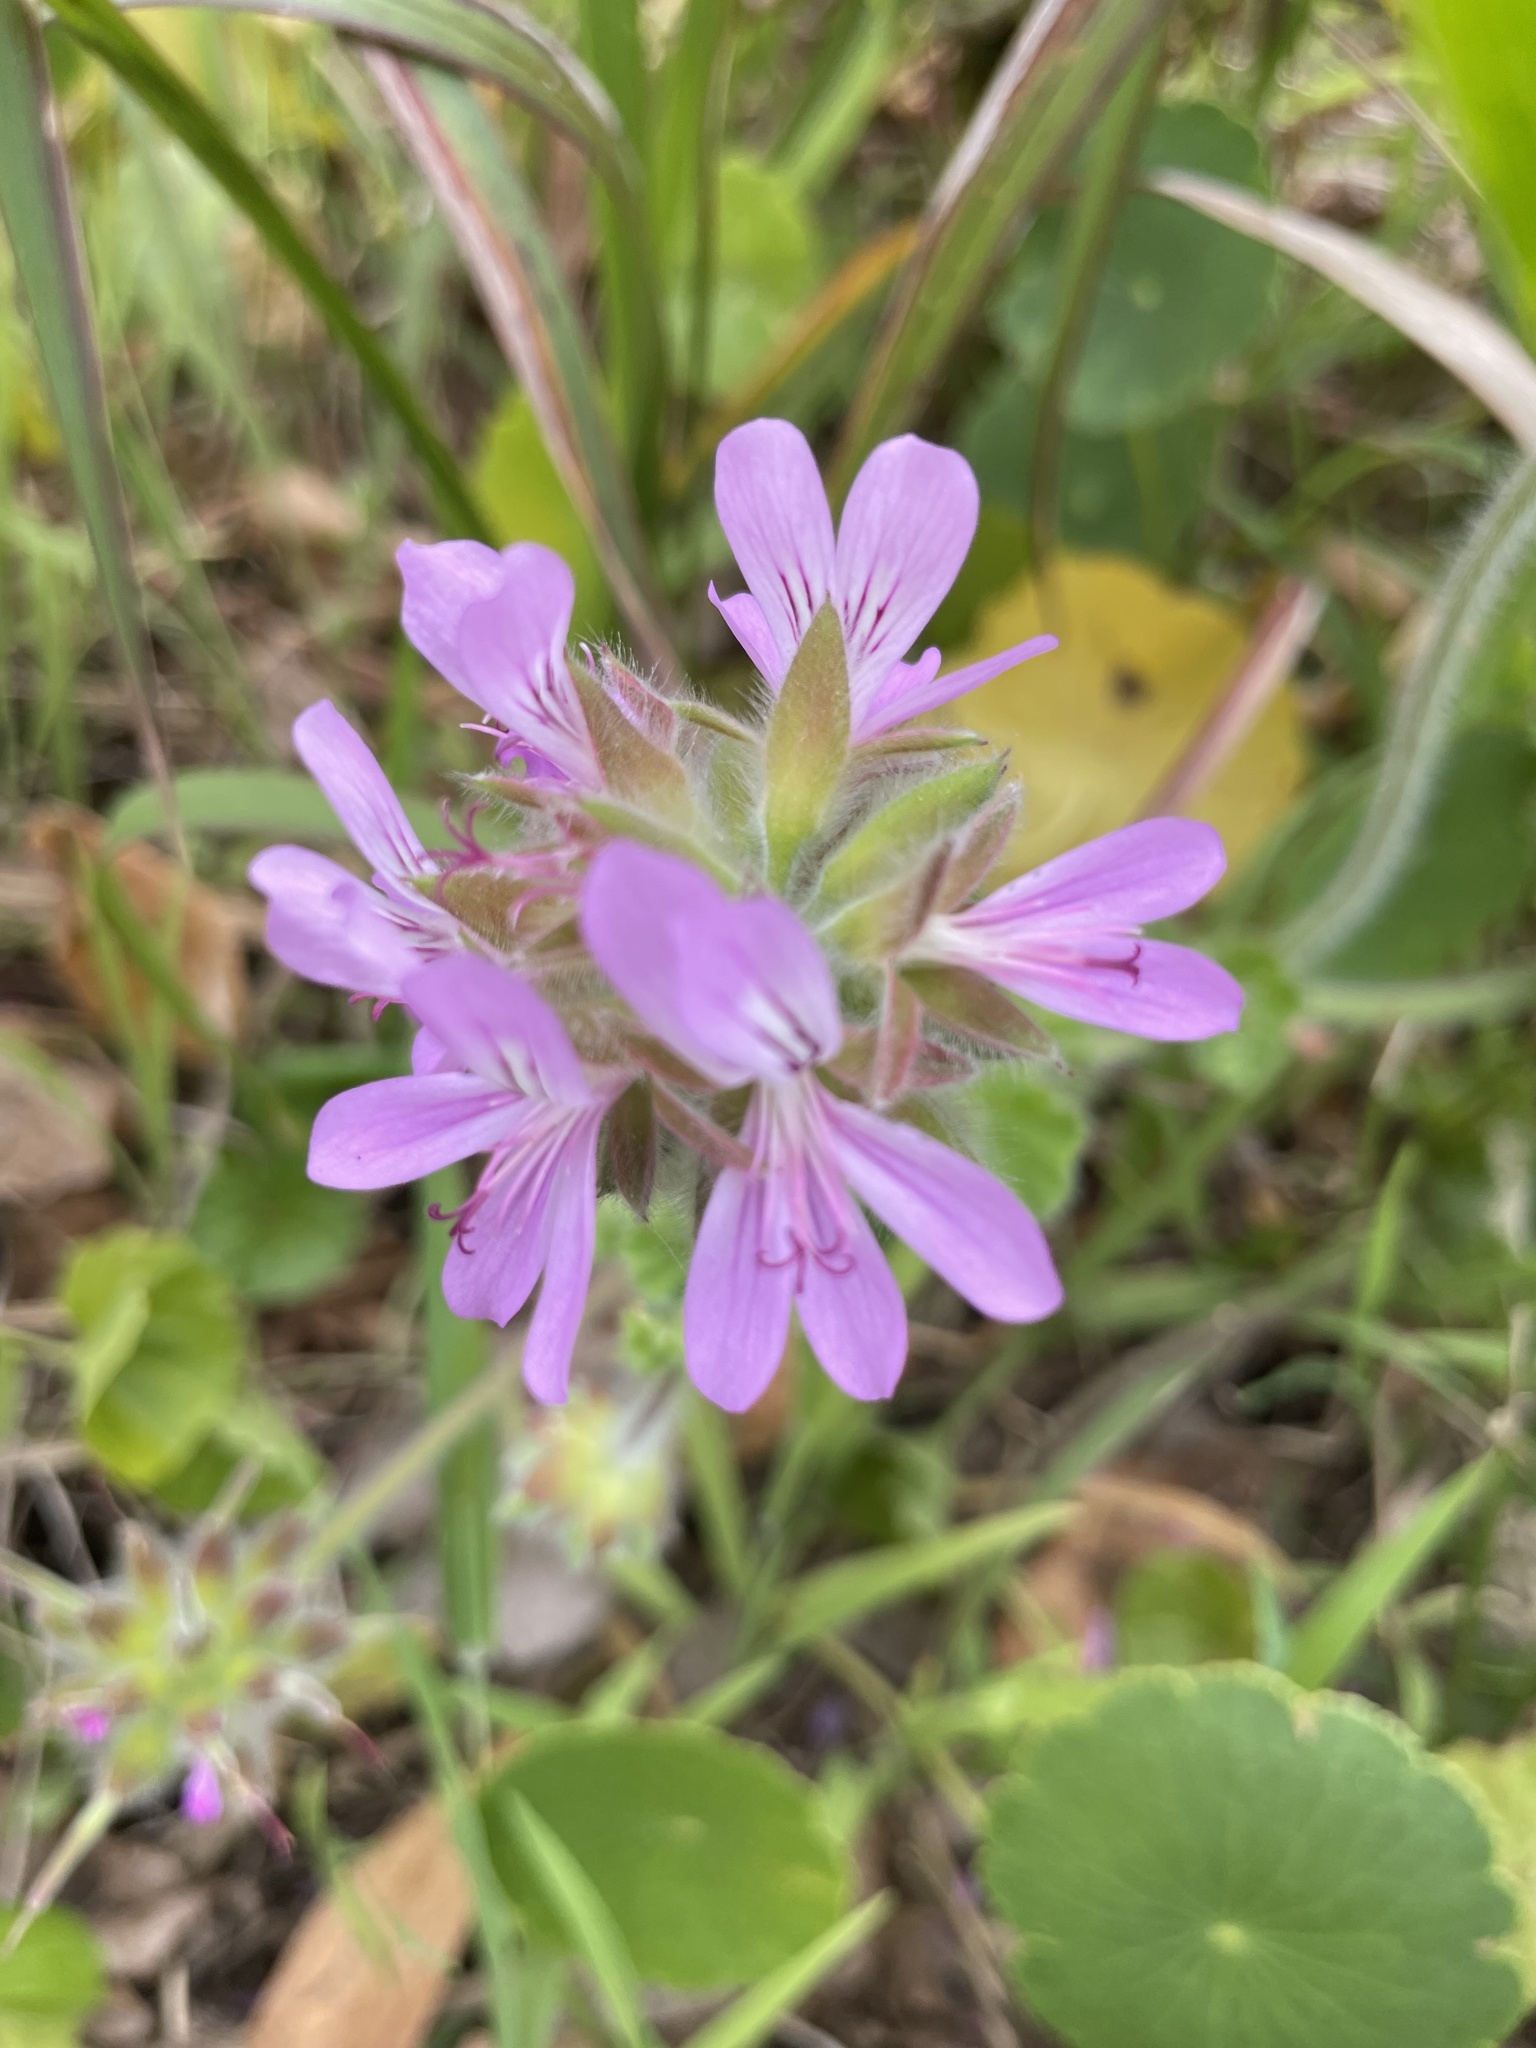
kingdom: Plantae
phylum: Tracheophyta
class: Magnoliopsida
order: Geraniales
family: Geraniaceae
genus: Pelargonium
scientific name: Pelargonium capitatum
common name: Rose scented geranium
